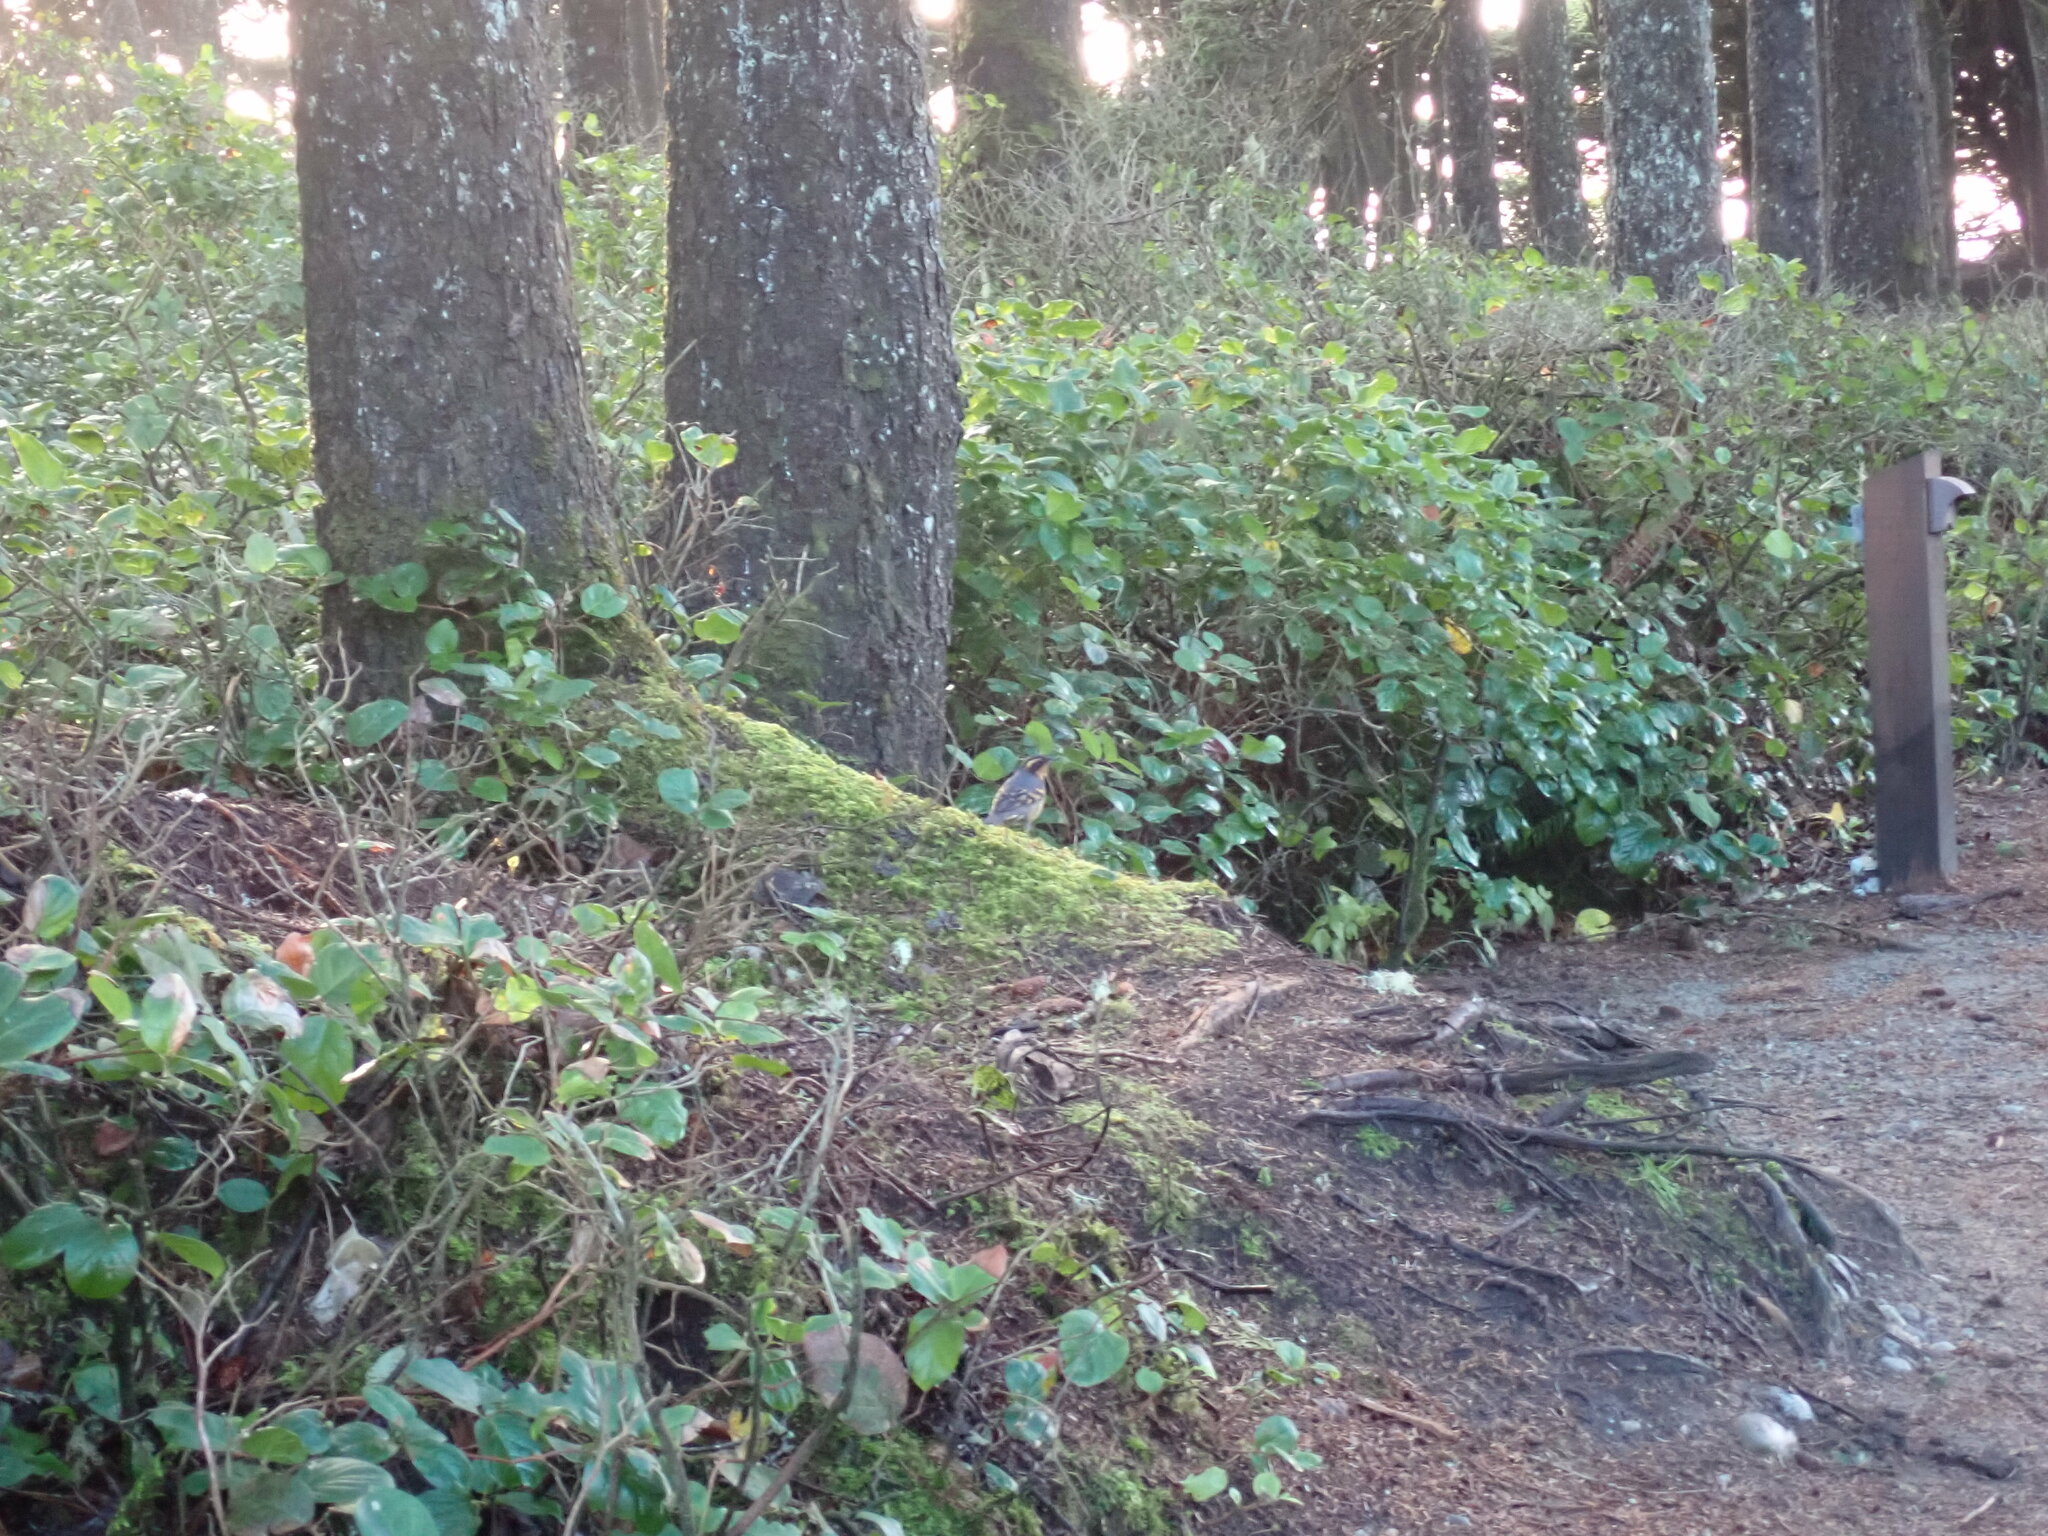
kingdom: Animalia
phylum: Chordata
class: Aves
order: Passeriformes
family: Turdidae
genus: Ixoreus
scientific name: Ixoreus naevius
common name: Varied thrush
